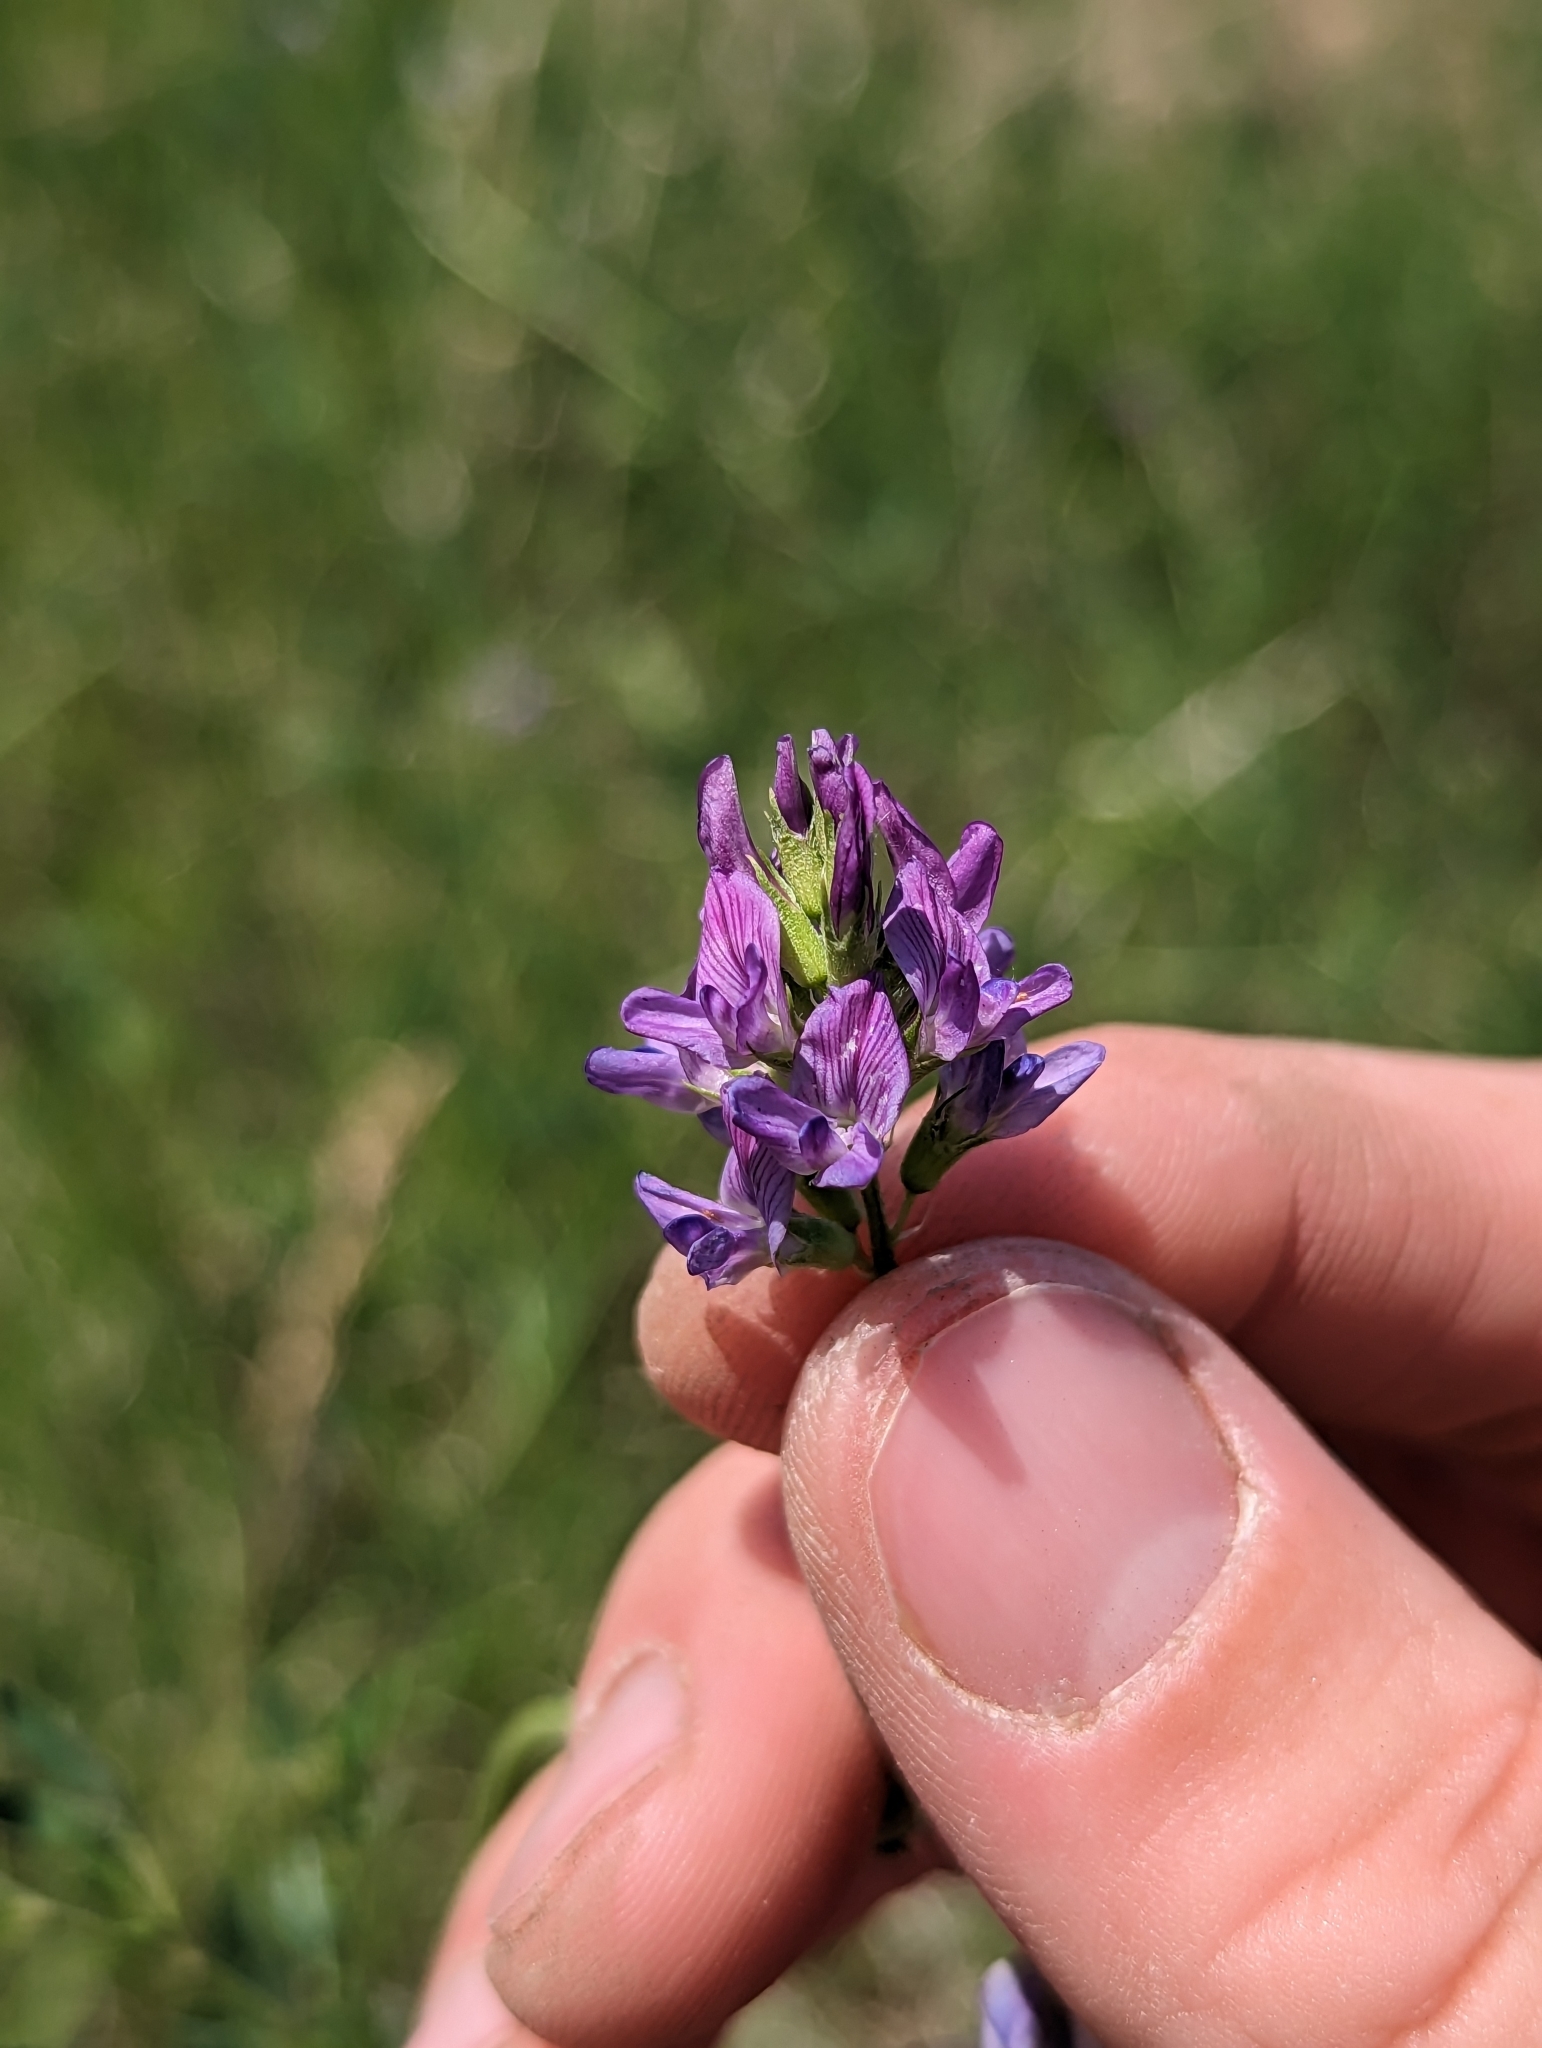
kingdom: Plantae
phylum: Tracheophyta
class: Magnoliopsida
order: Fabales
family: Fabaceae
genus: Medicago
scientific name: Medicago sativa
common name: Alfalfa
